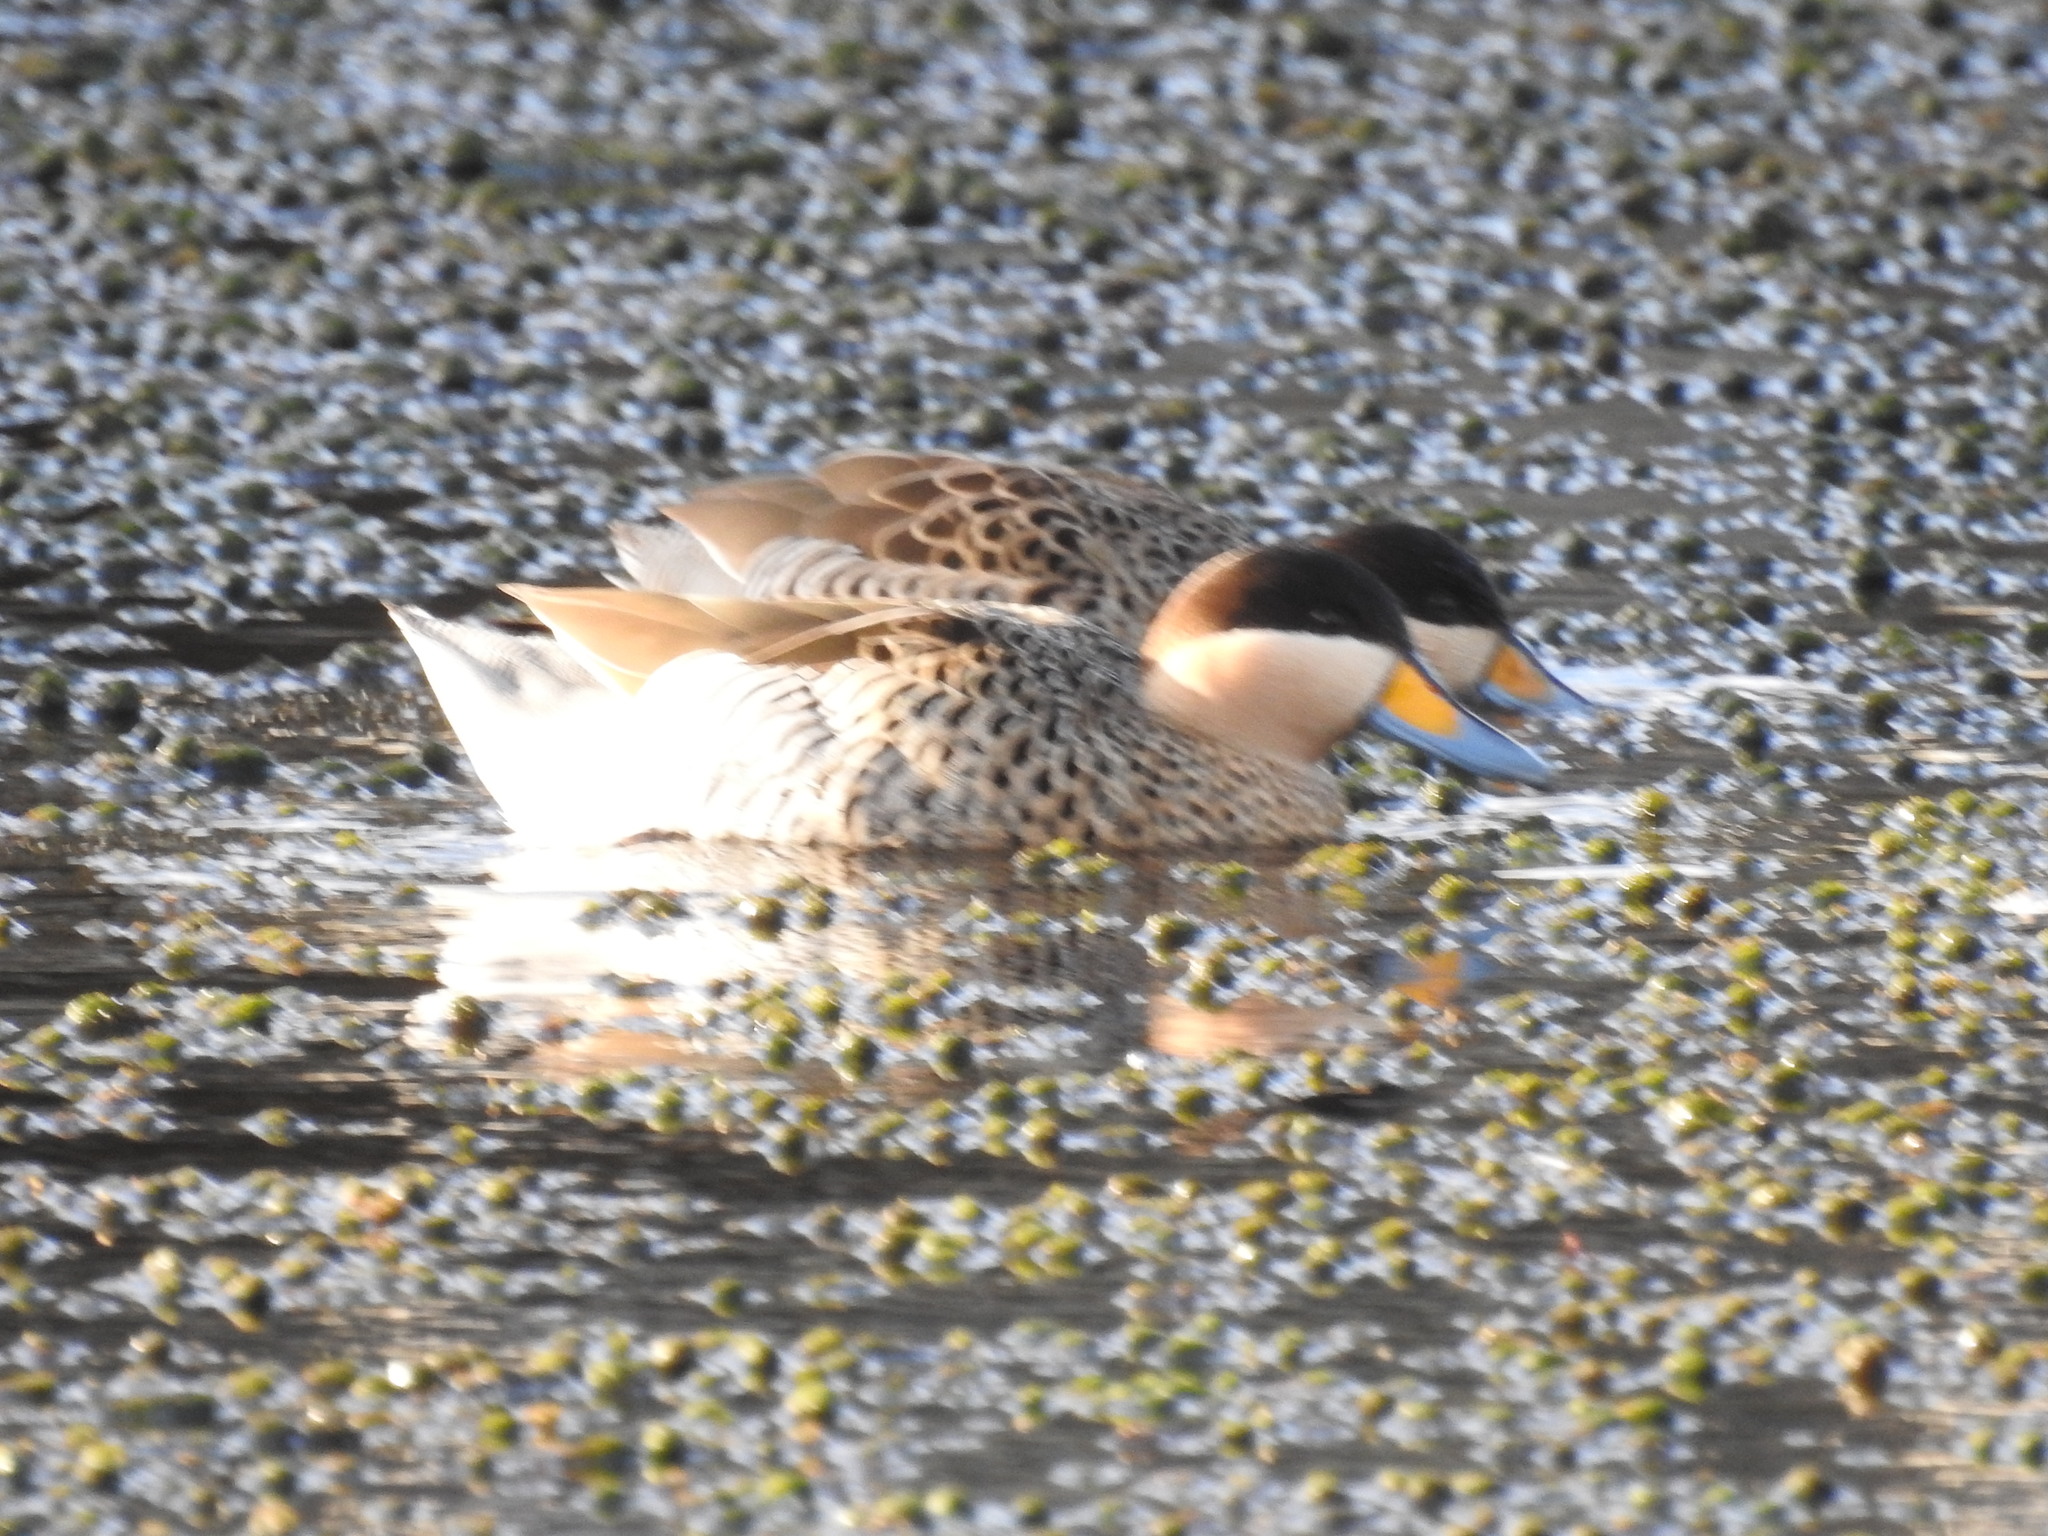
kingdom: Animalia
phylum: Chordata
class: Aves
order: Anseriformes
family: Anatidae
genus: Spatula
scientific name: Spatula versicolor
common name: Silver teal
